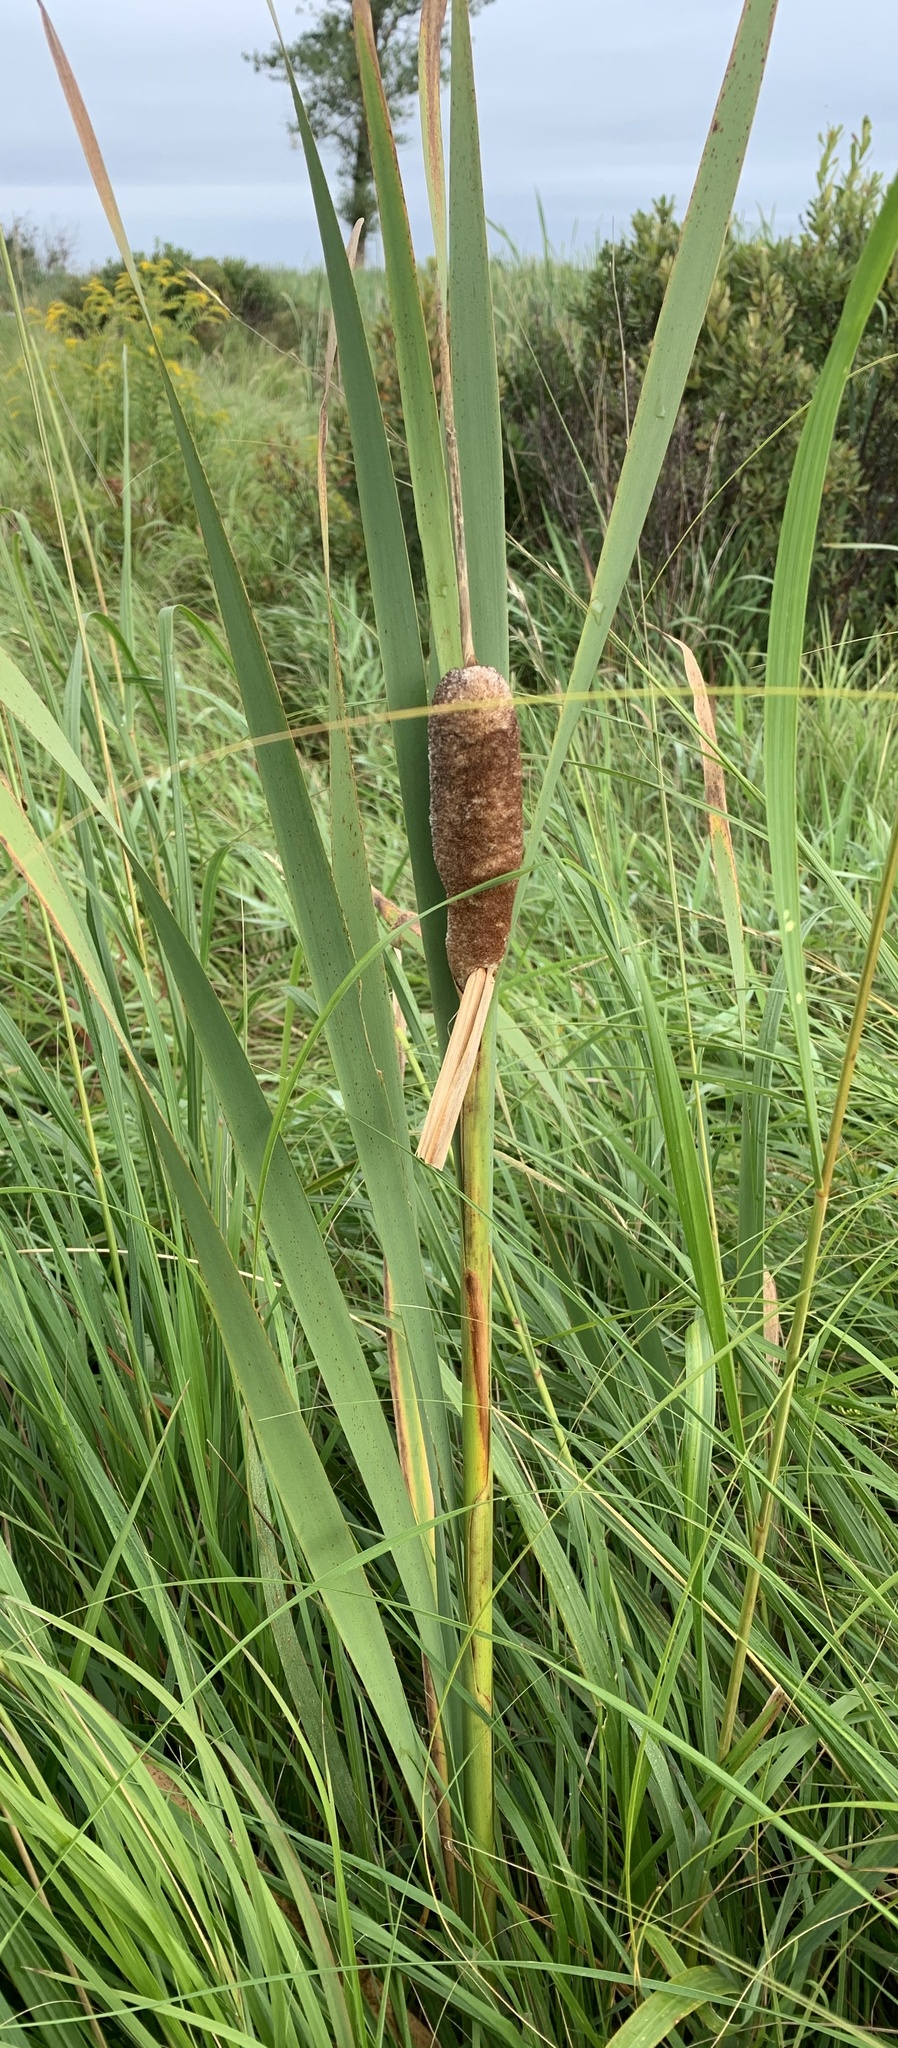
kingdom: Plantae
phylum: Tracheophyta
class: Liliopsida
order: Poales
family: Typhaceae
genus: Typha
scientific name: Typha latifolia
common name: Broadleaf cattail
